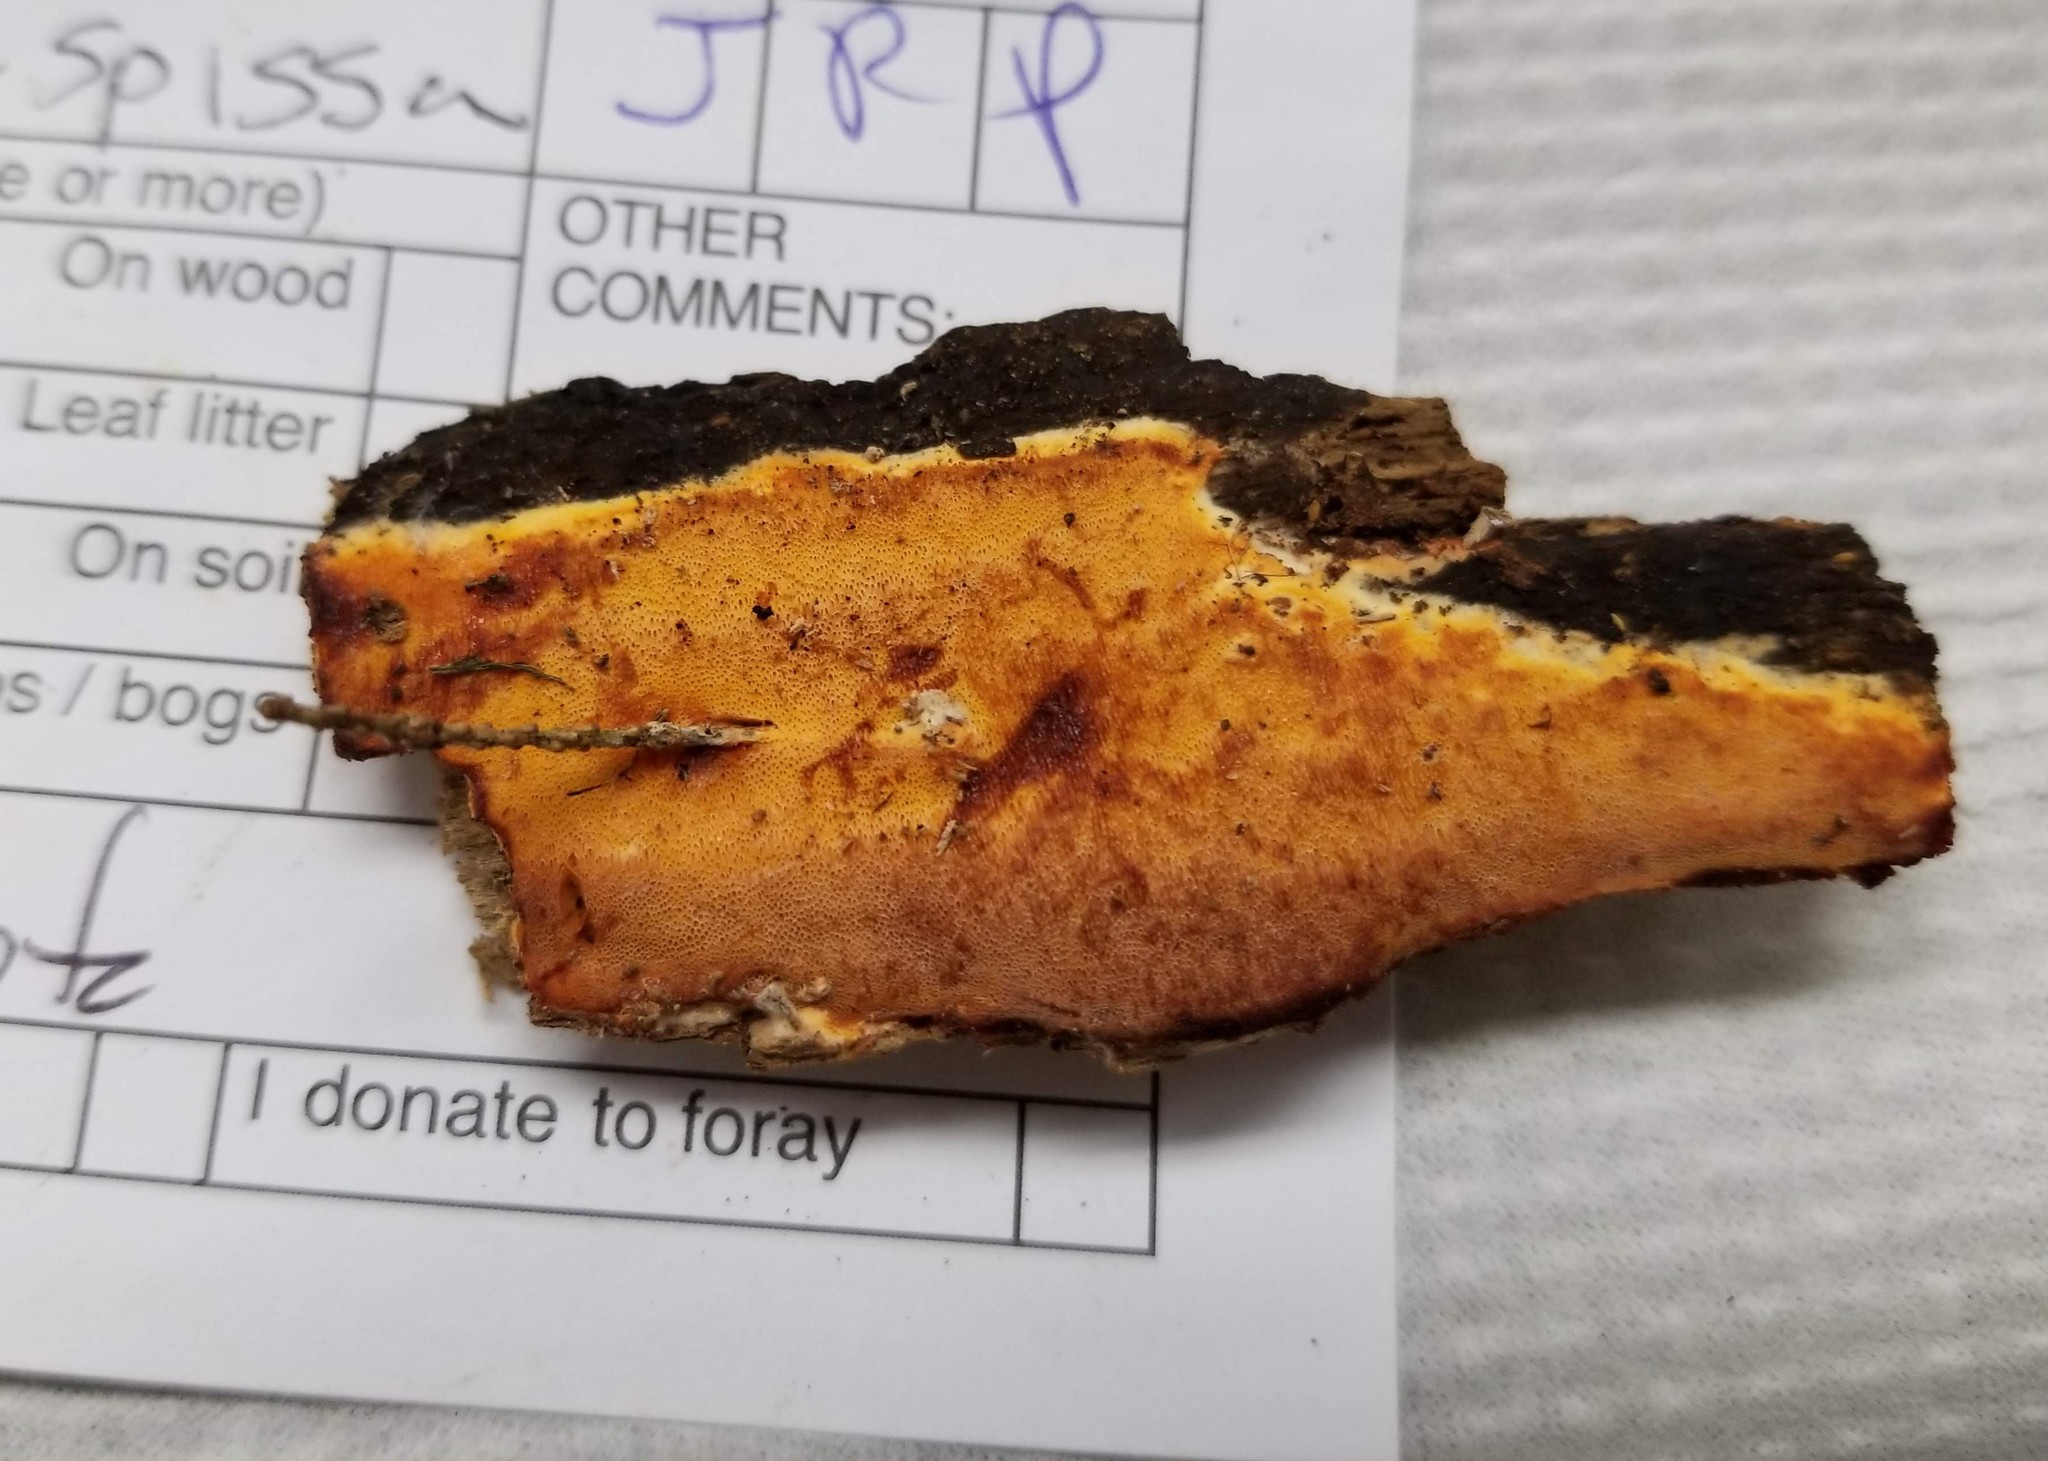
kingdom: Fungi
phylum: Basidiomycota
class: Agaricomycetes
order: Polyporales
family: Irpicaceae
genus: Ceriporia
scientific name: Ceriporia spissa
